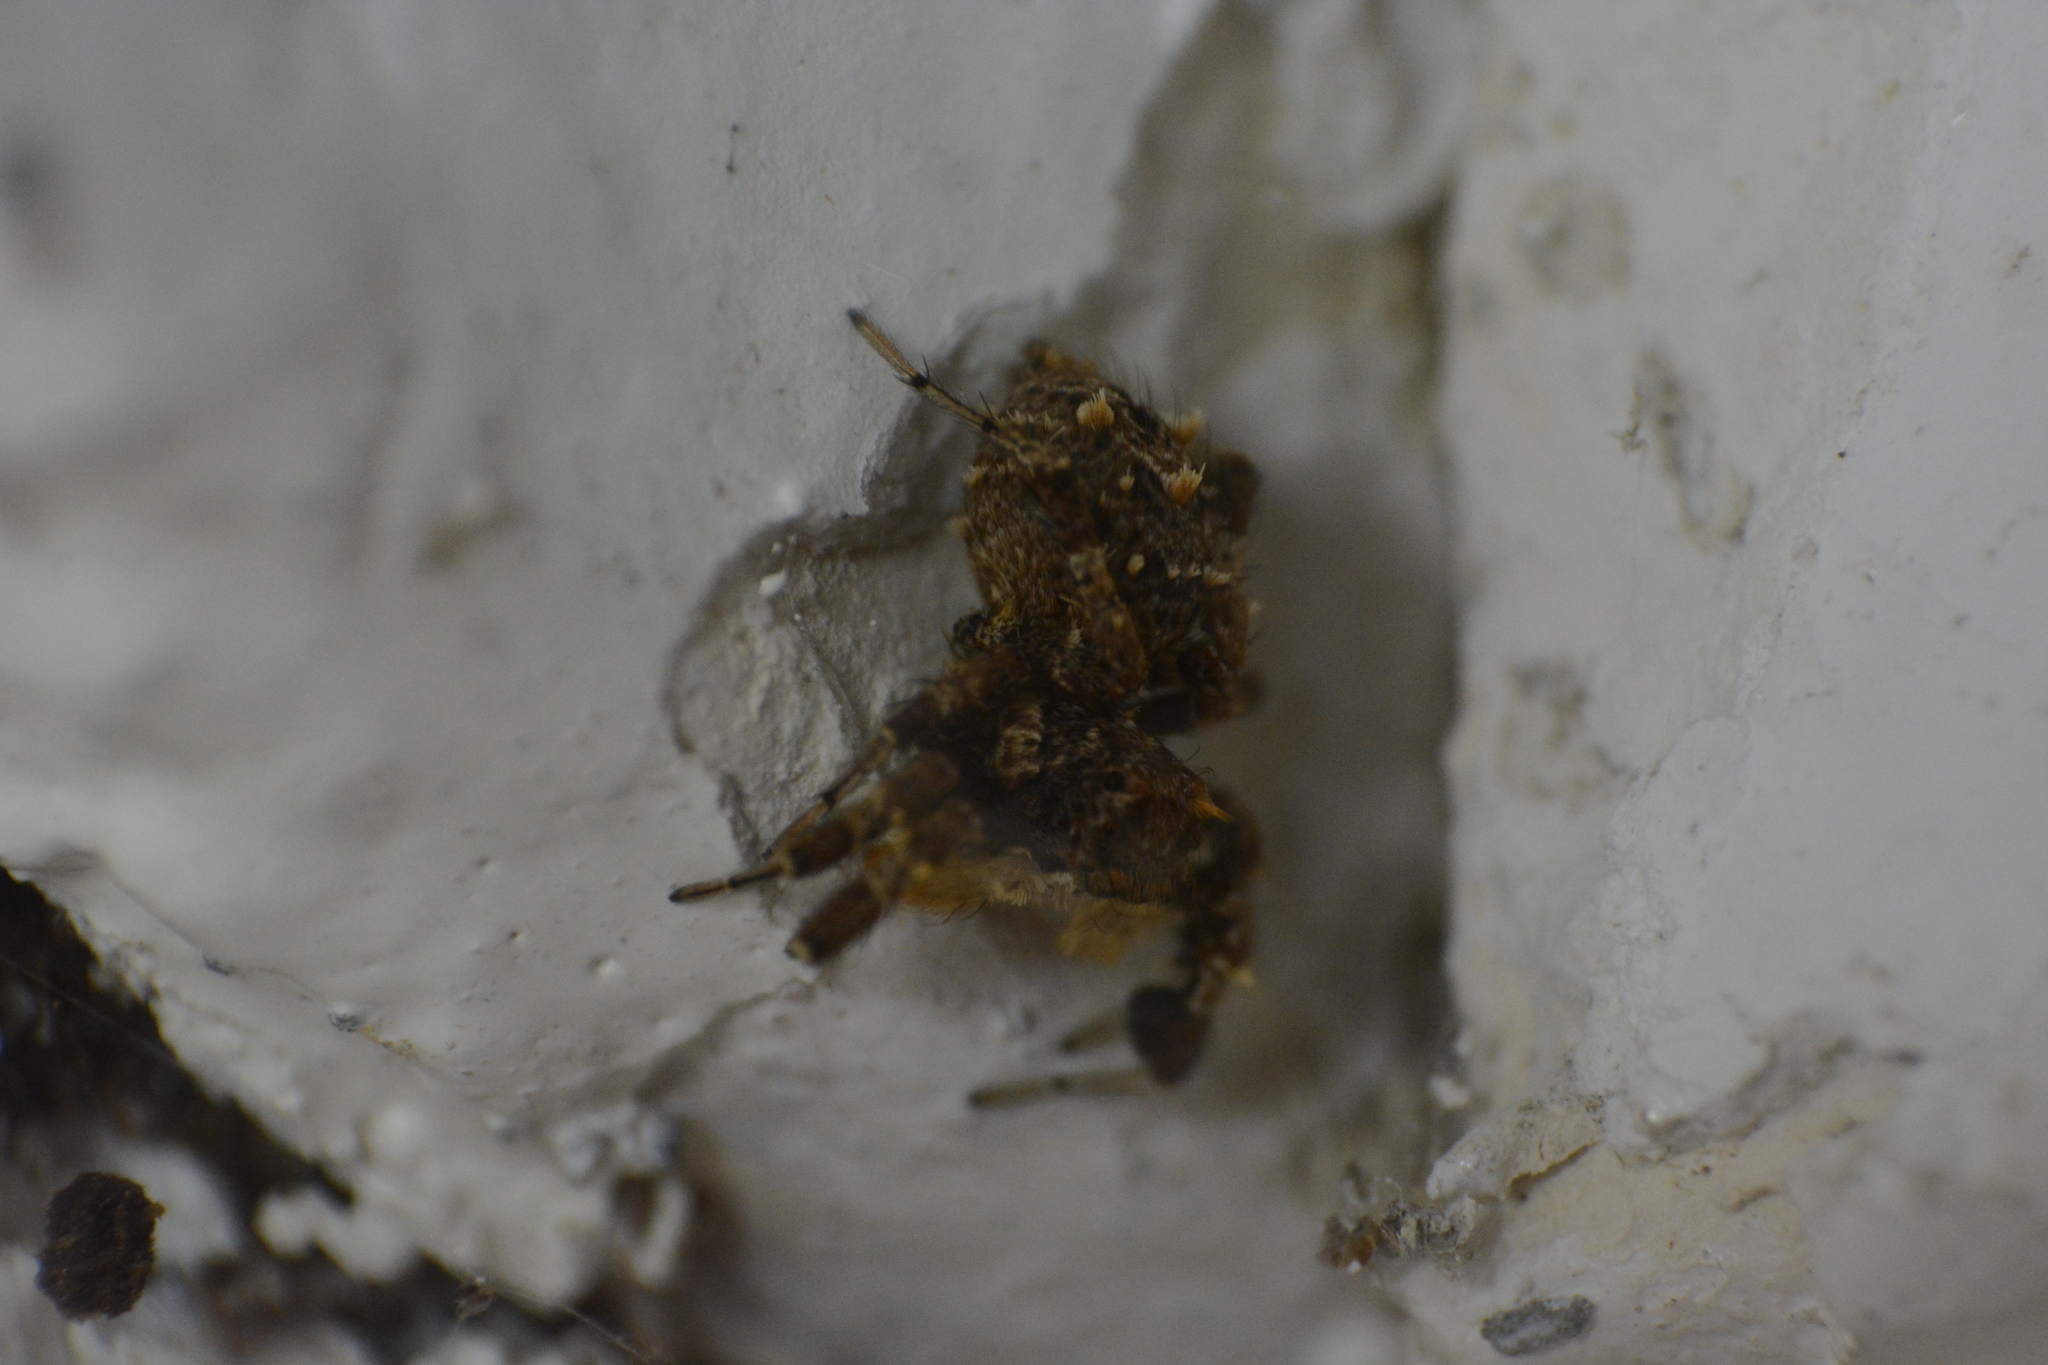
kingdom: Animalia
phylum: Arthropoda
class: Arachnida
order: Araneae
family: Salticidae
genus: Portia
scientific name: Portia schultzi
